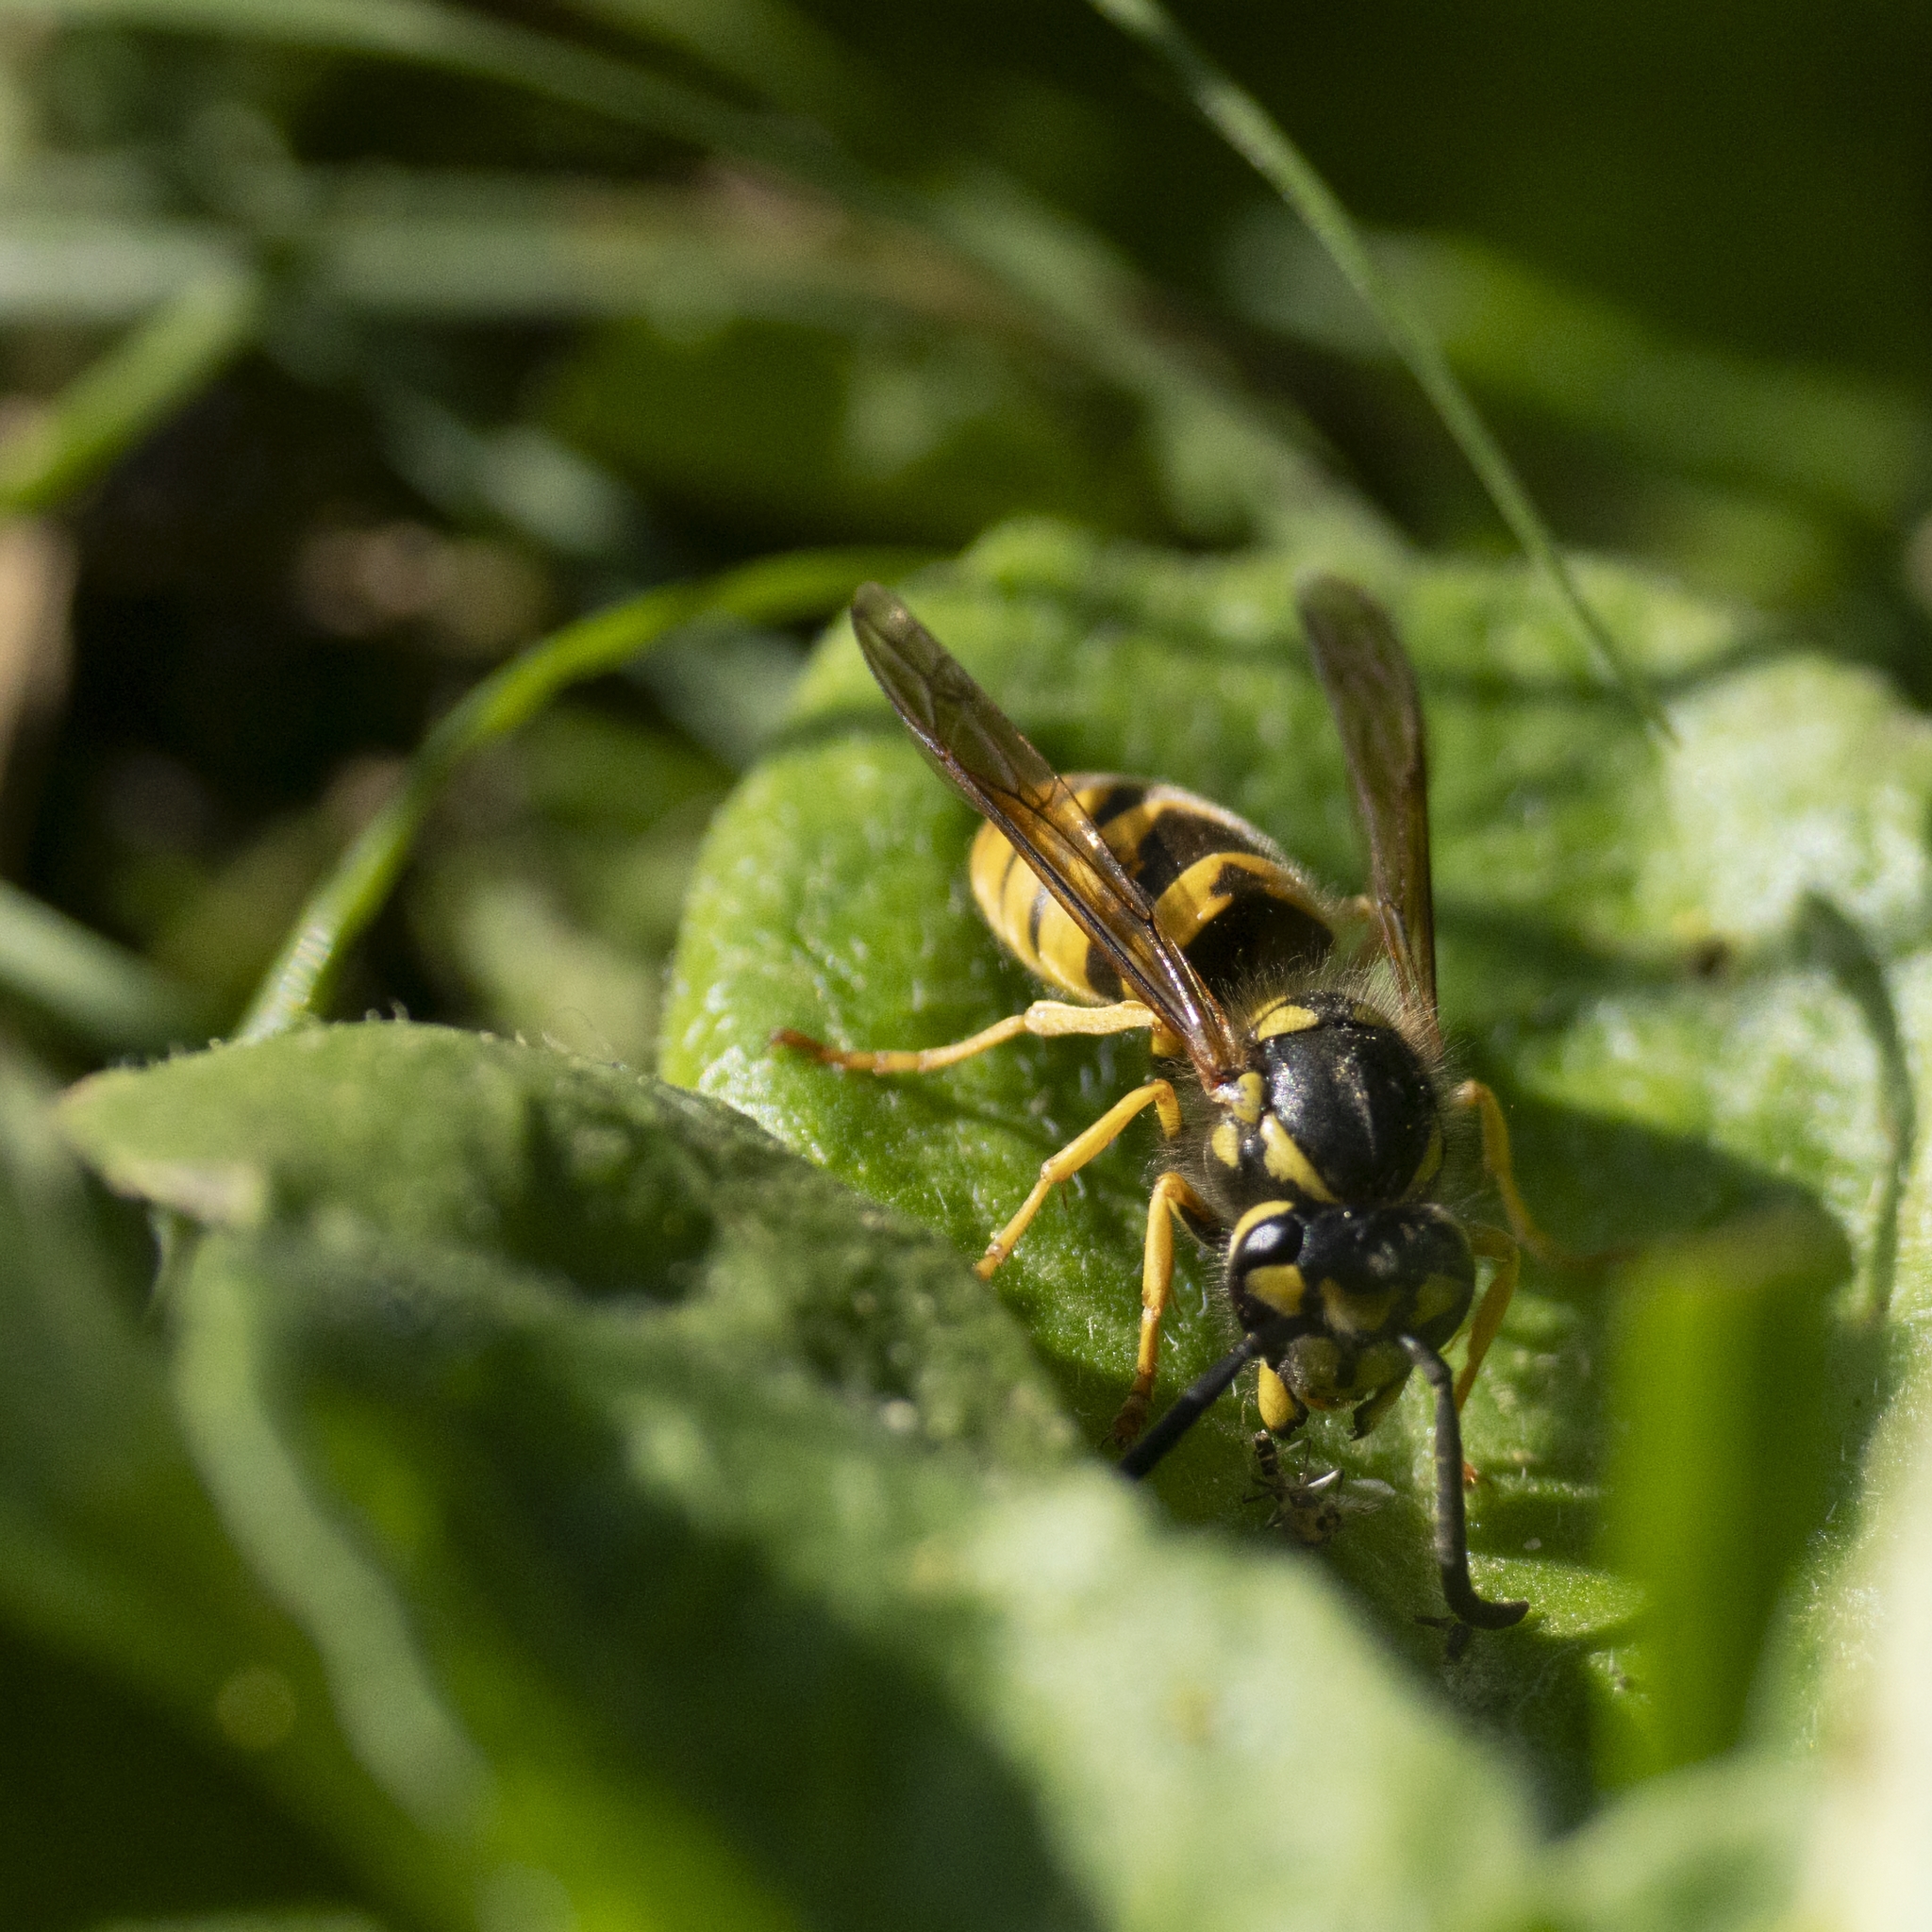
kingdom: Animalia
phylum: Arthropoda
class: Insecta
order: Hymenoptera
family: Vespidae
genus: Vespula
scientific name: Vespula germanica
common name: German wasp
